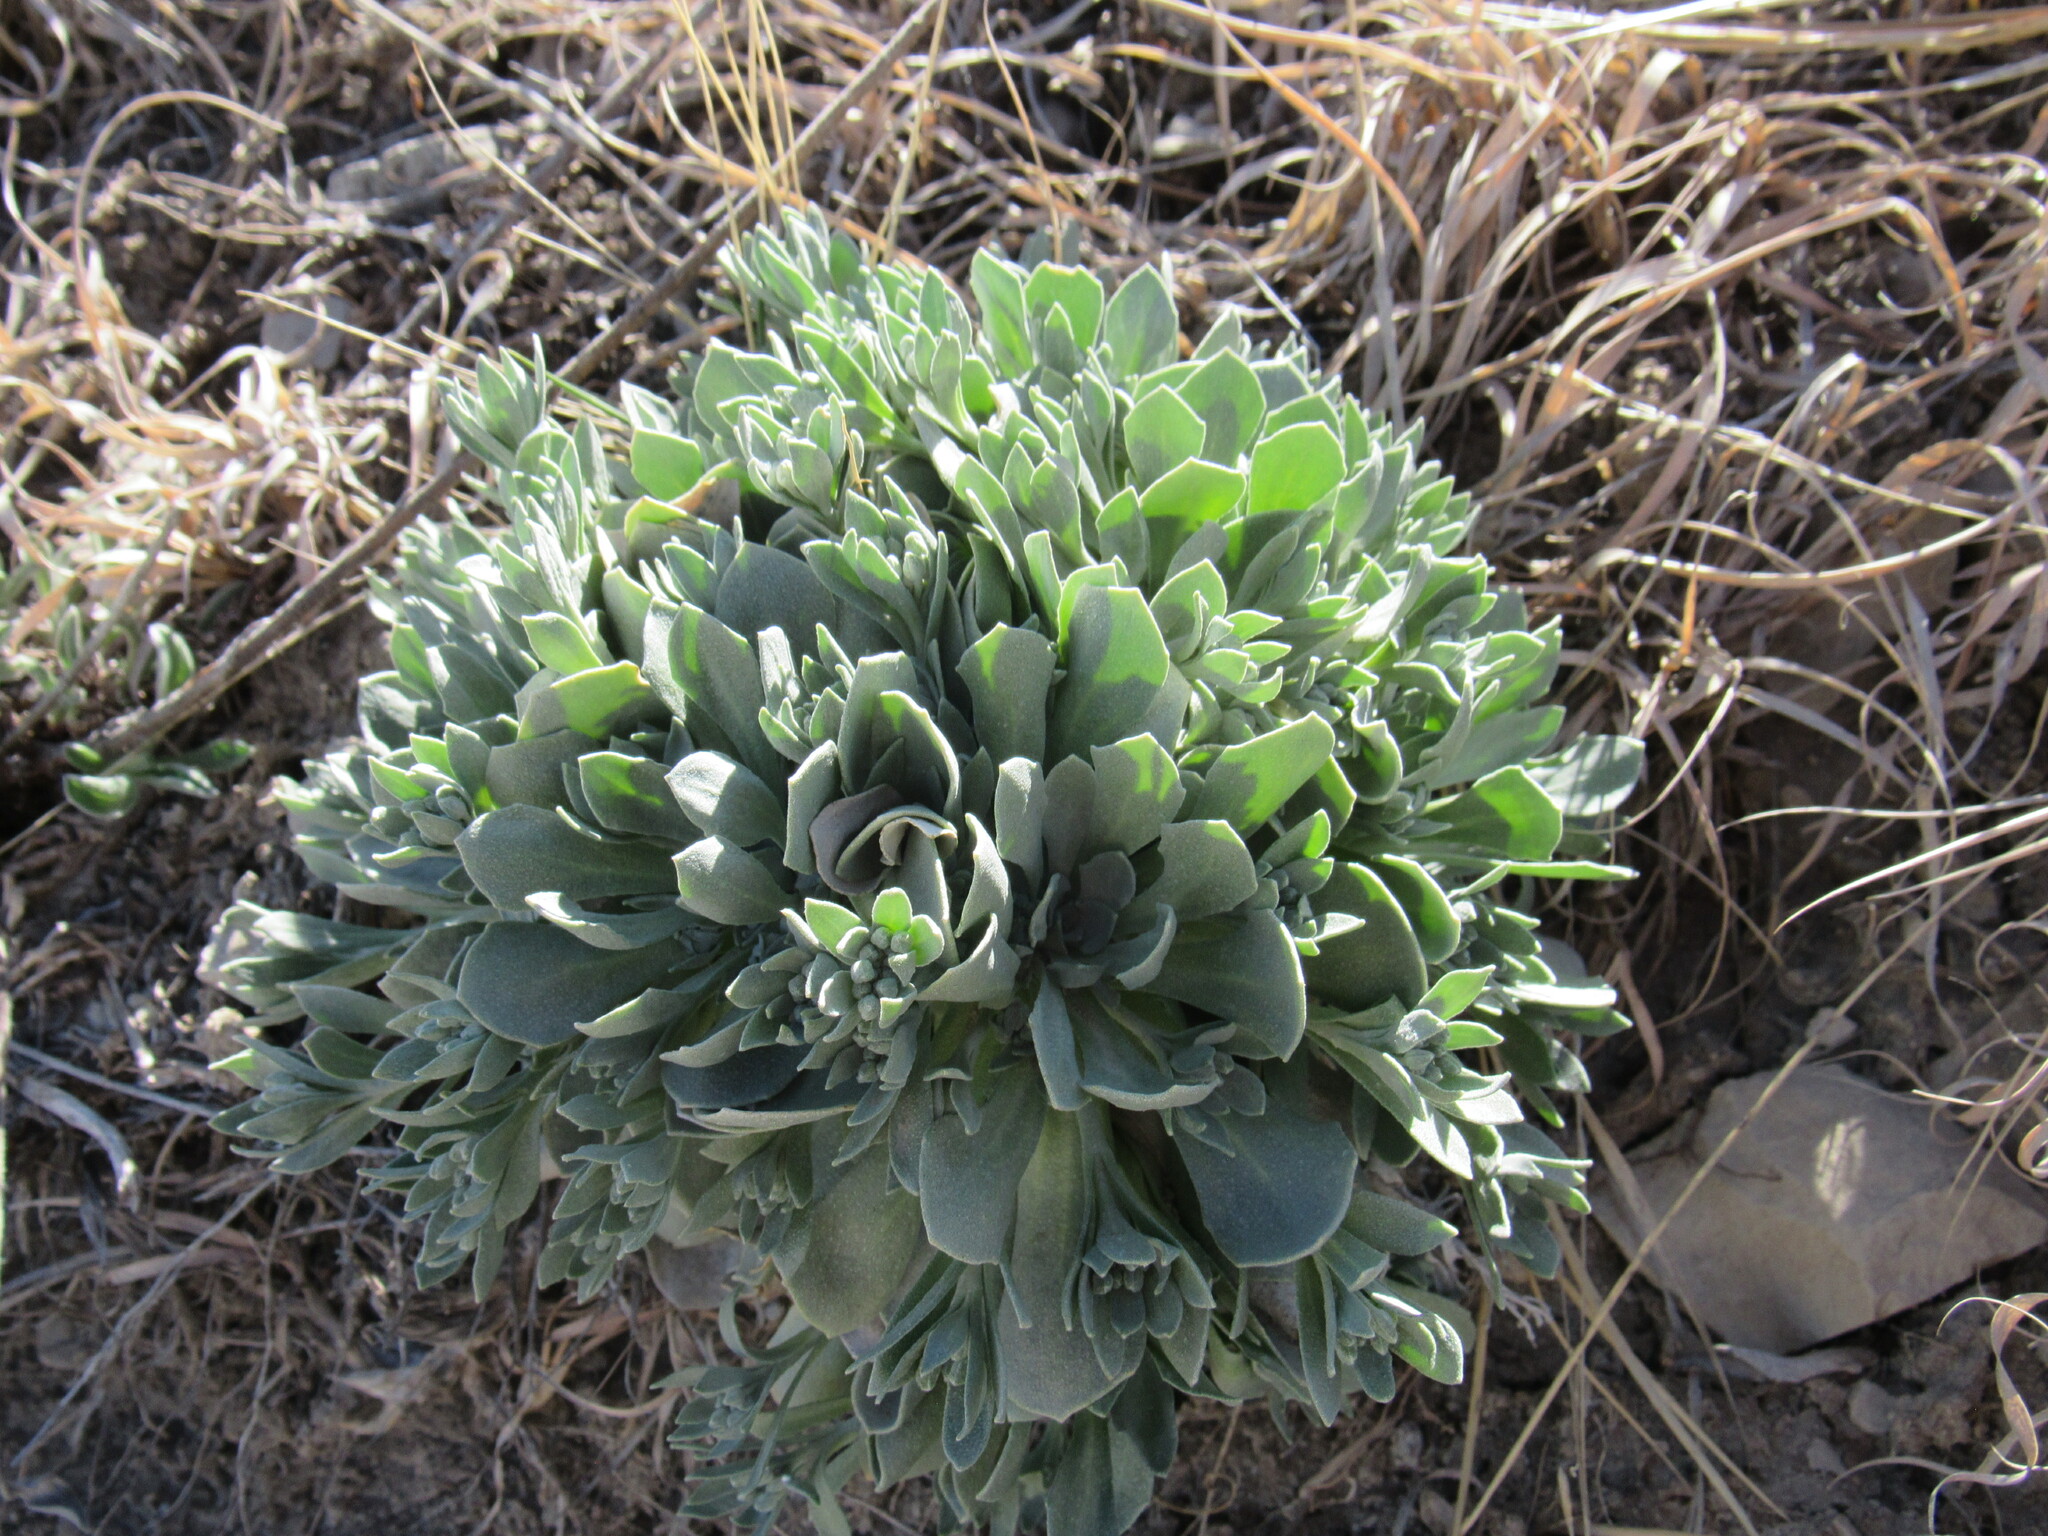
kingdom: Plantae
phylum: Tracheophyta
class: Magnoliopsida
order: Brassicales
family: Brassicaceae
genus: Physaria
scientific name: Physaria bellii
